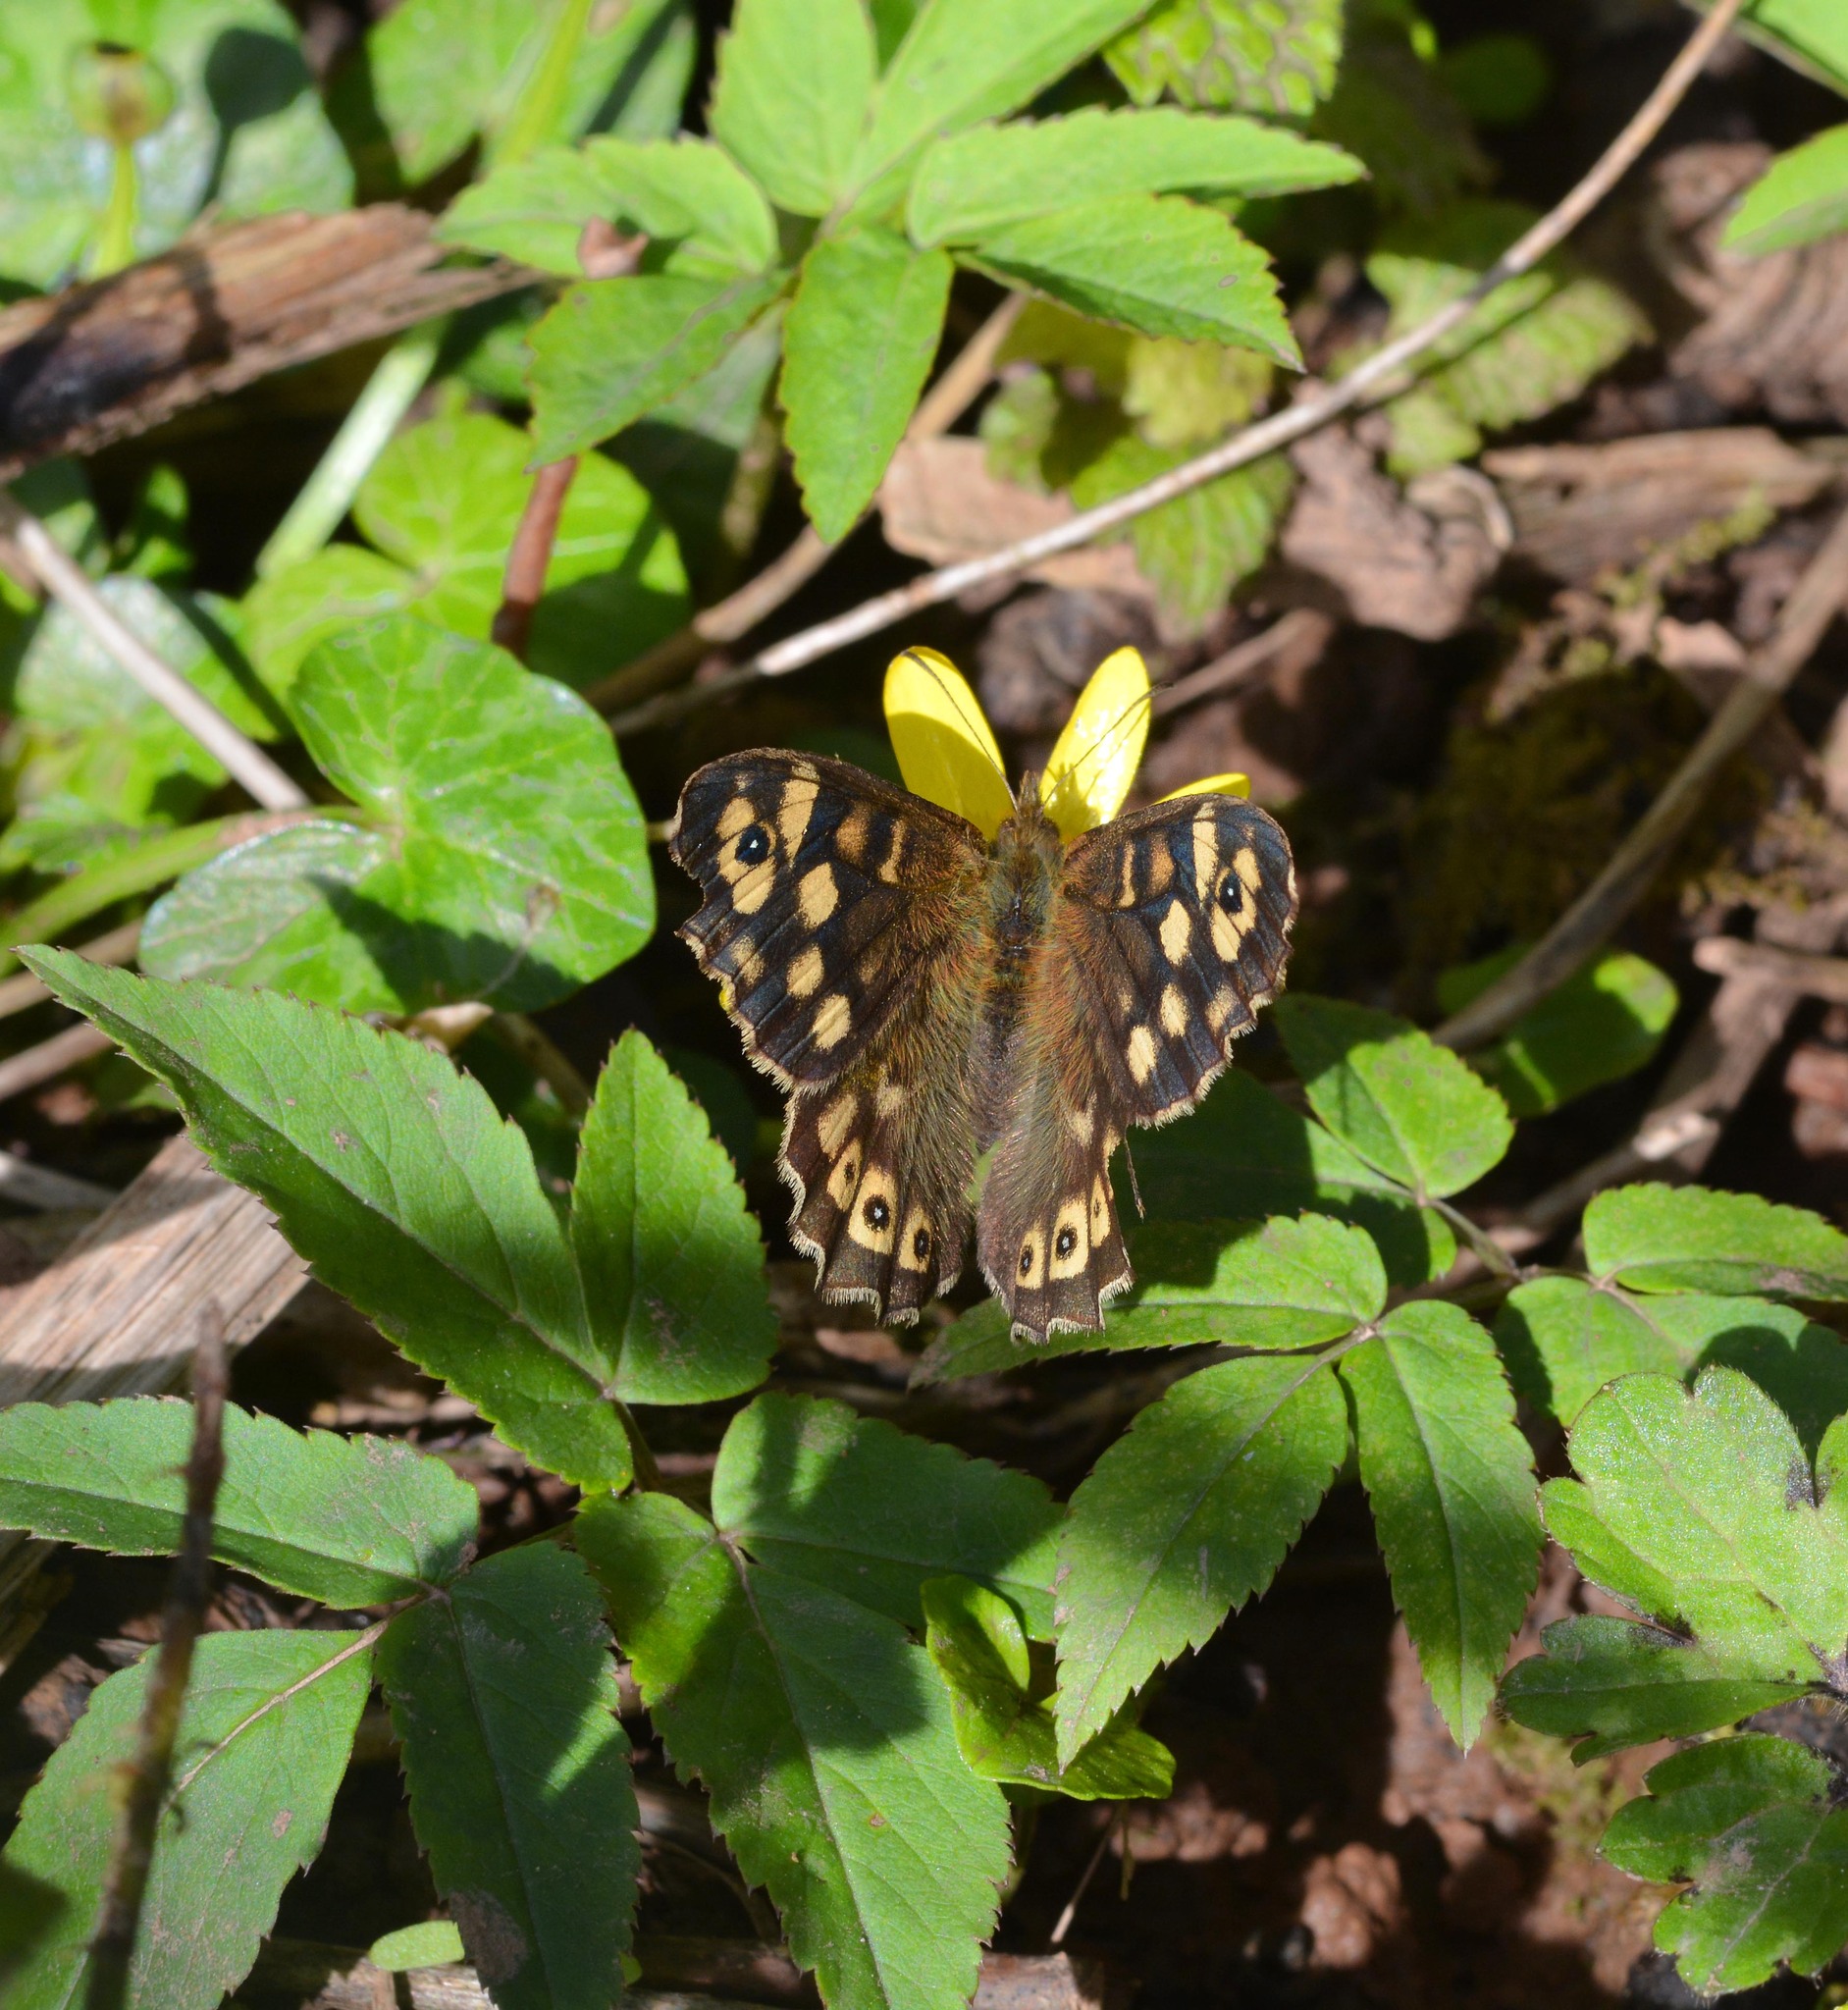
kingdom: Animalia
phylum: Arthropoda
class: Insecta
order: Lepidoptera
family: Nymphalidae
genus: Pararge
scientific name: Pararge aegeria
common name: Speckled wood
